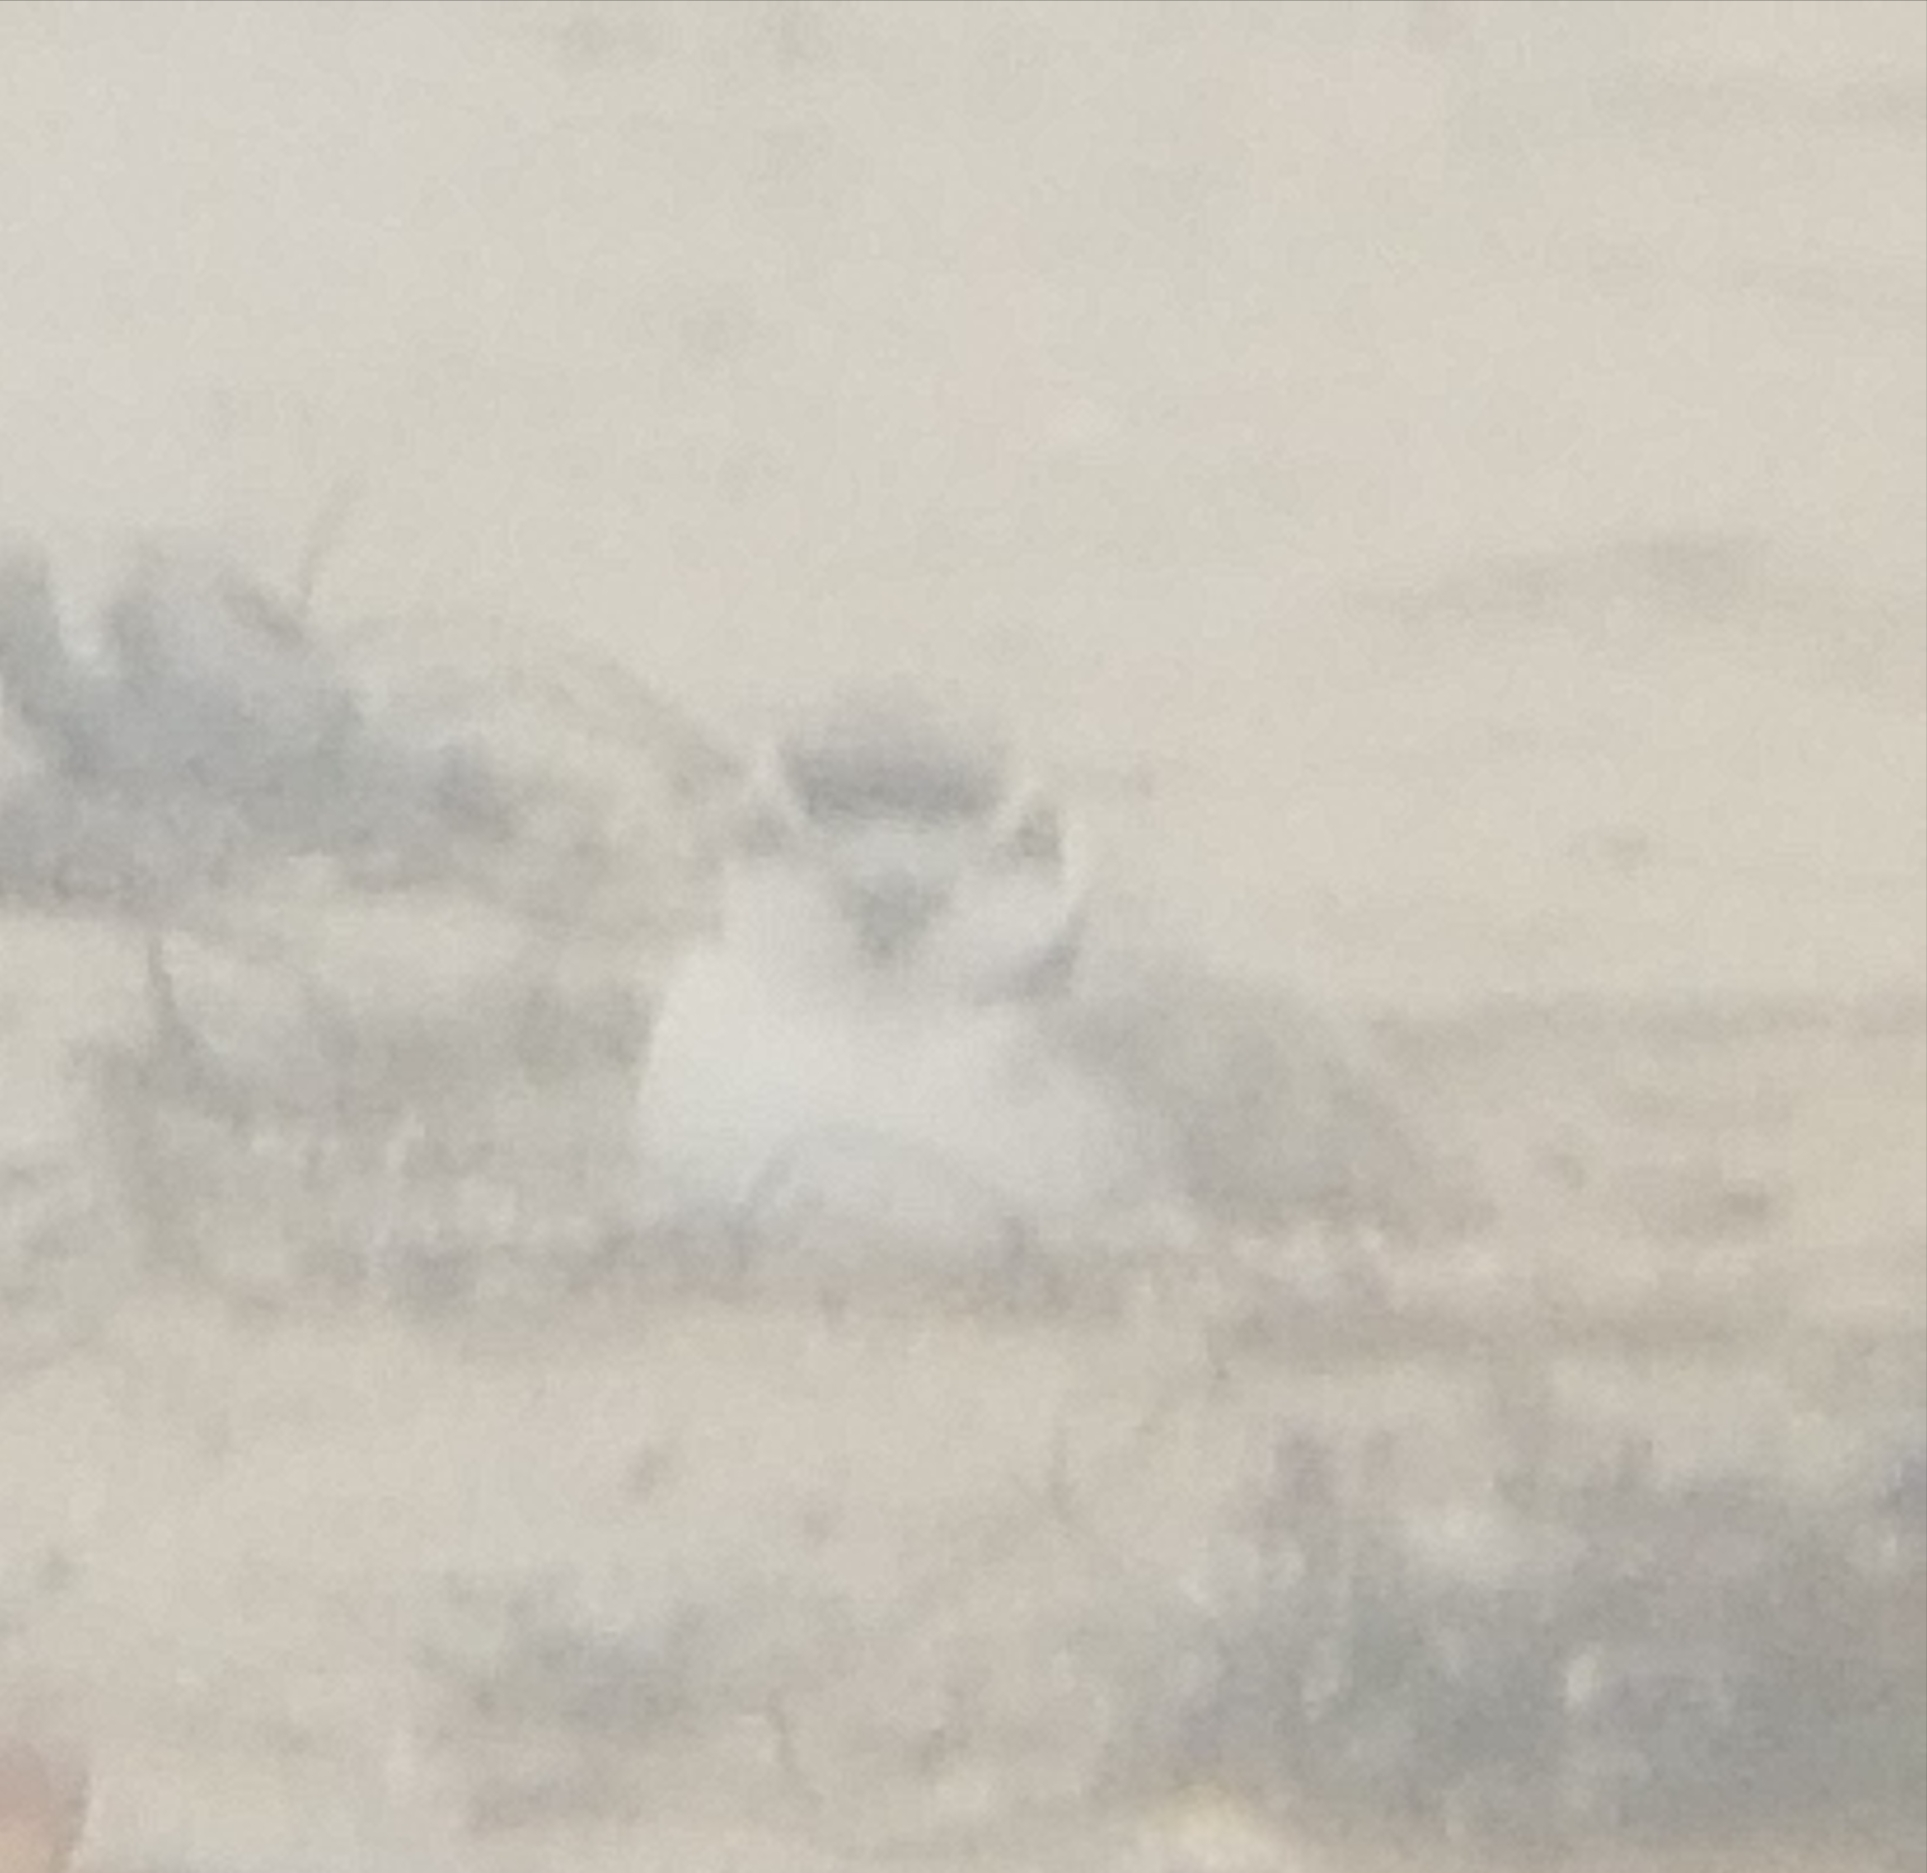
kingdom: Animalia
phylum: Chordata
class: Aves
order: Charadriiformes
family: Charadriidae
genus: Anarhynchus
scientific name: Anarhynchus
